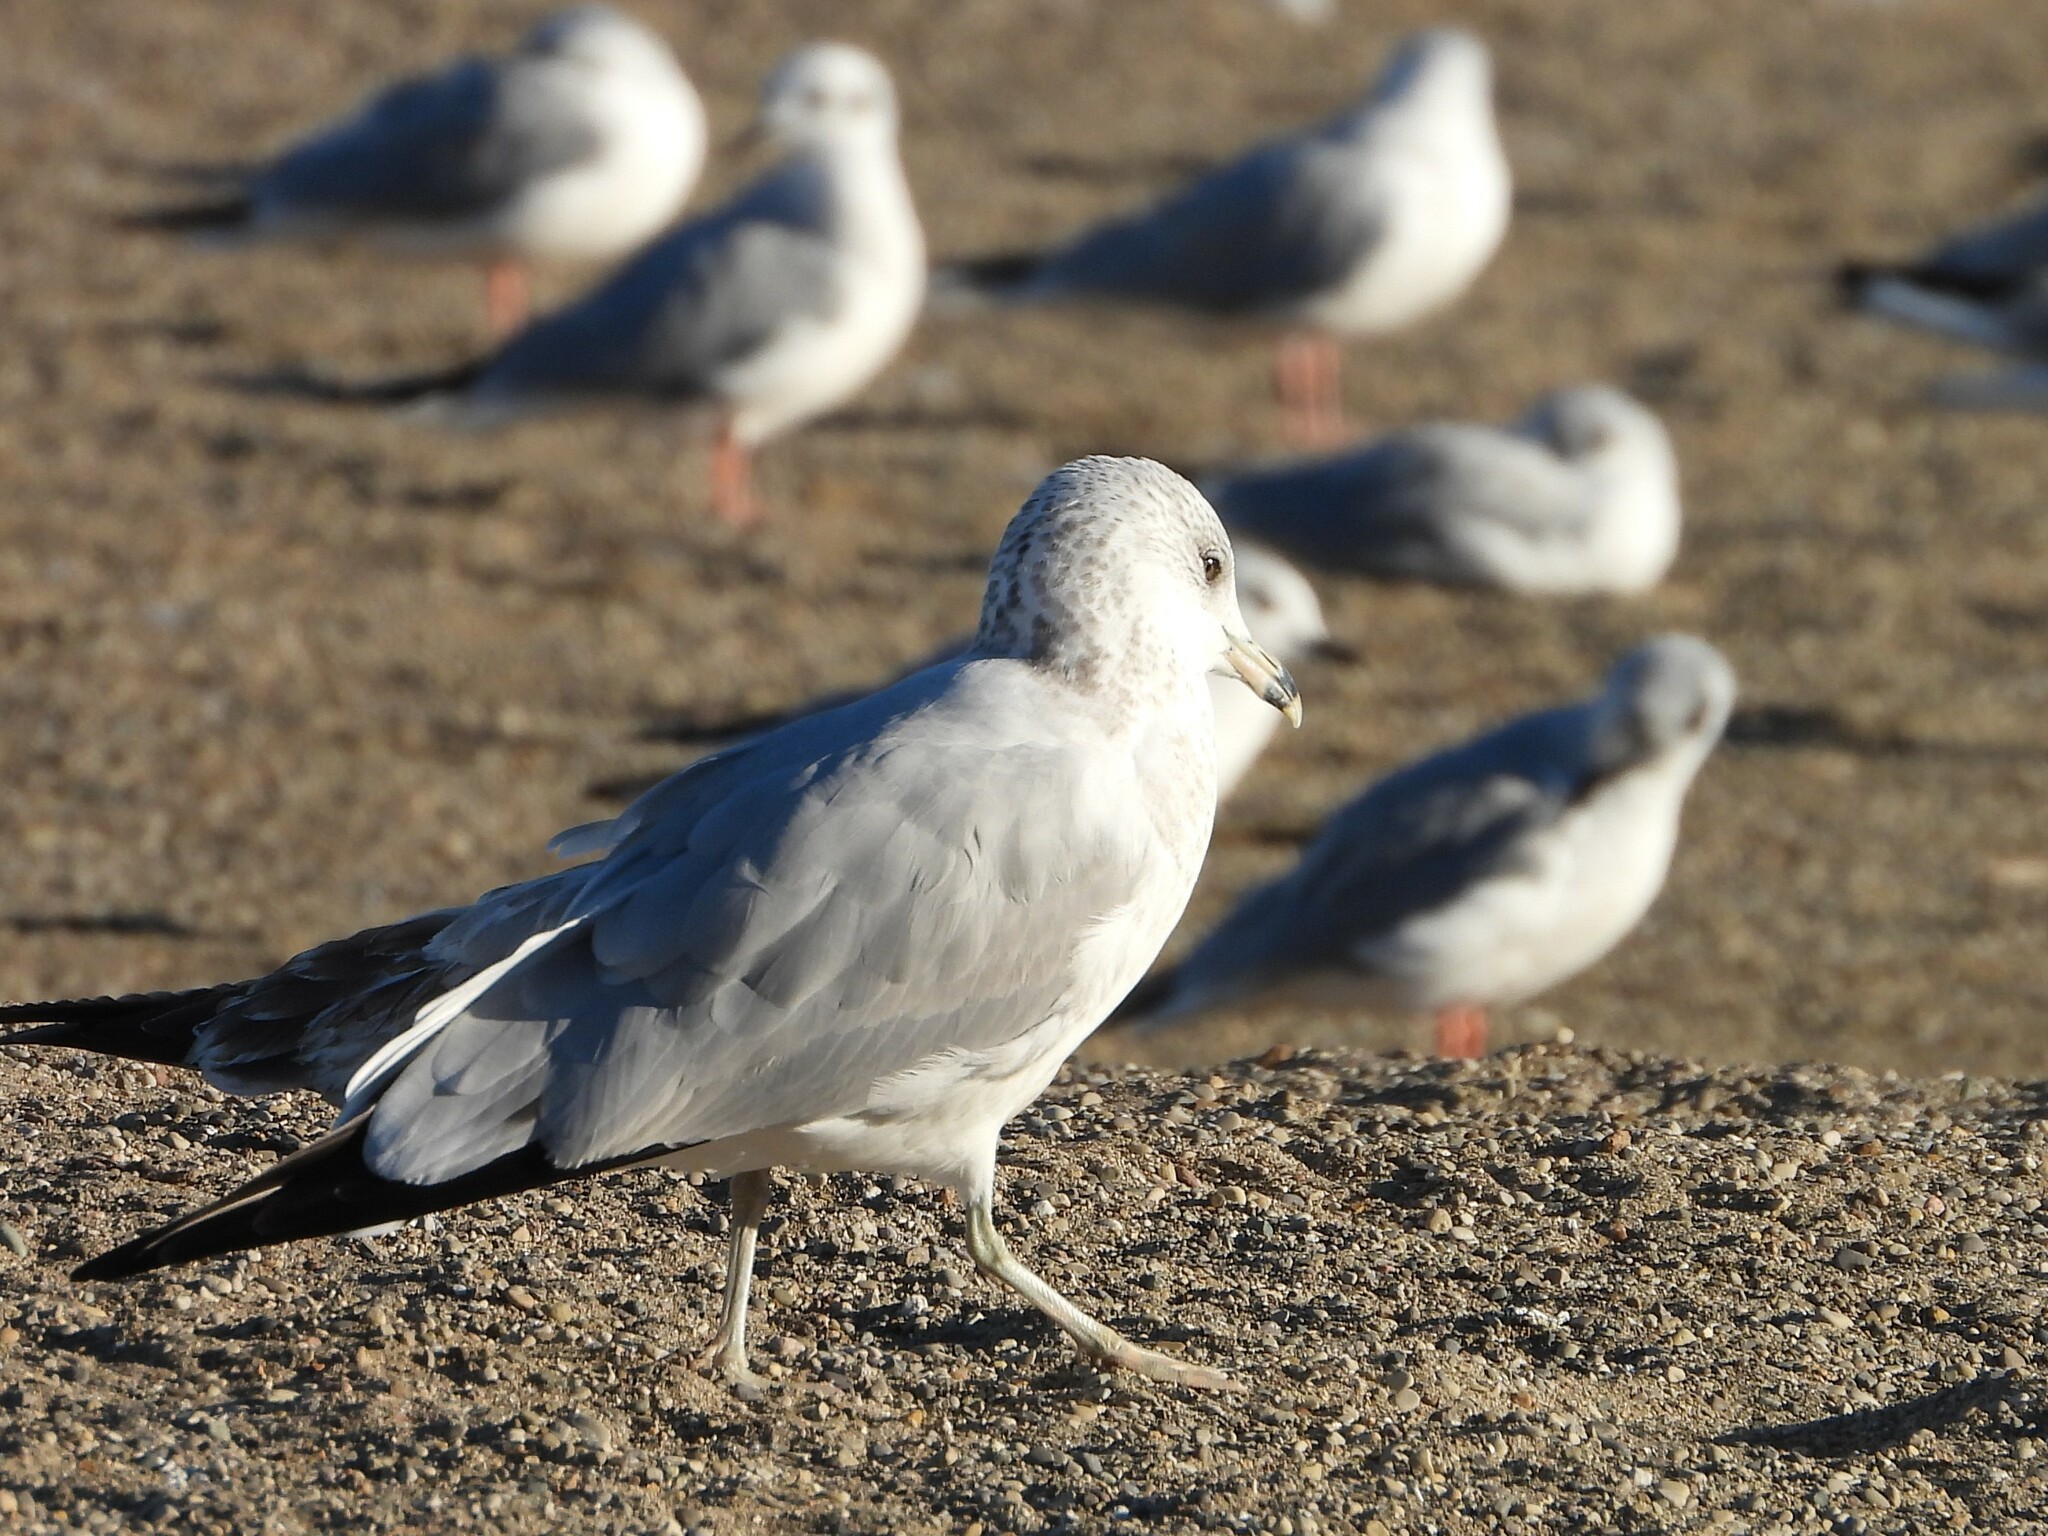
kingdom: Animalia
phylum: Chordata
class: Aves
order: Charadriiformes
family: Laridae
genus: Larus
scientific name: Larus delawarensis
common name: Ring-billed gull
